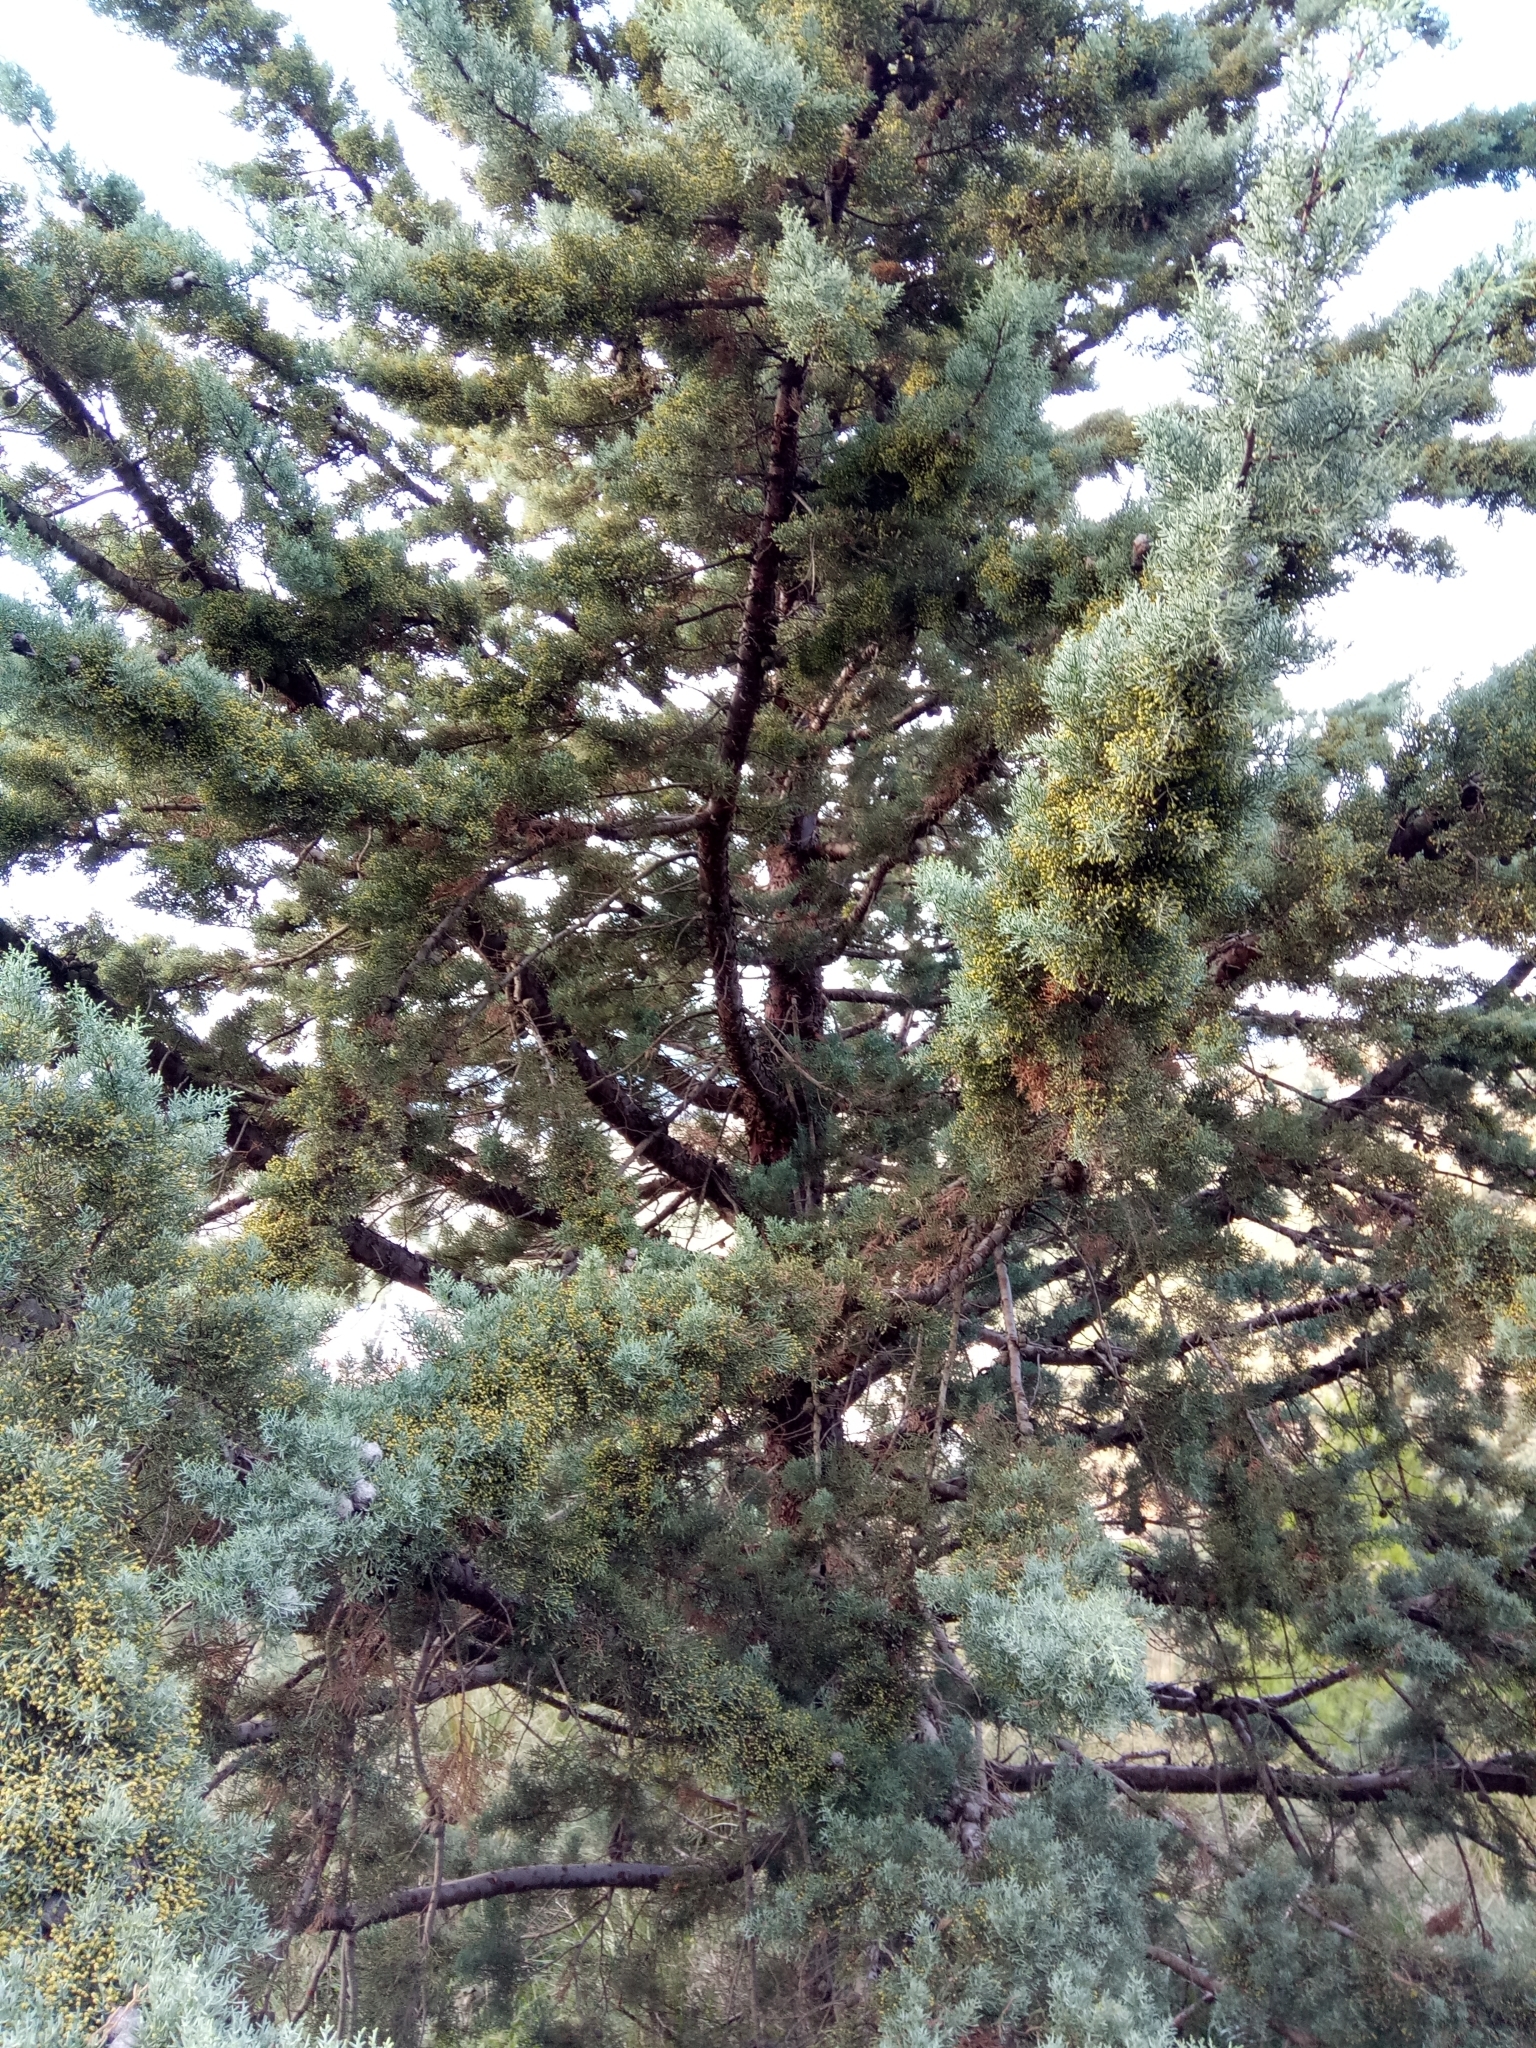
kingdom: Plantae
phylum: Tracheophyta
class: Pinopsida
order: Pinales
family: Cupressaceae
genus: Cupressus
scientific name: Cupressus sempervirens
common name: Italian cypress
